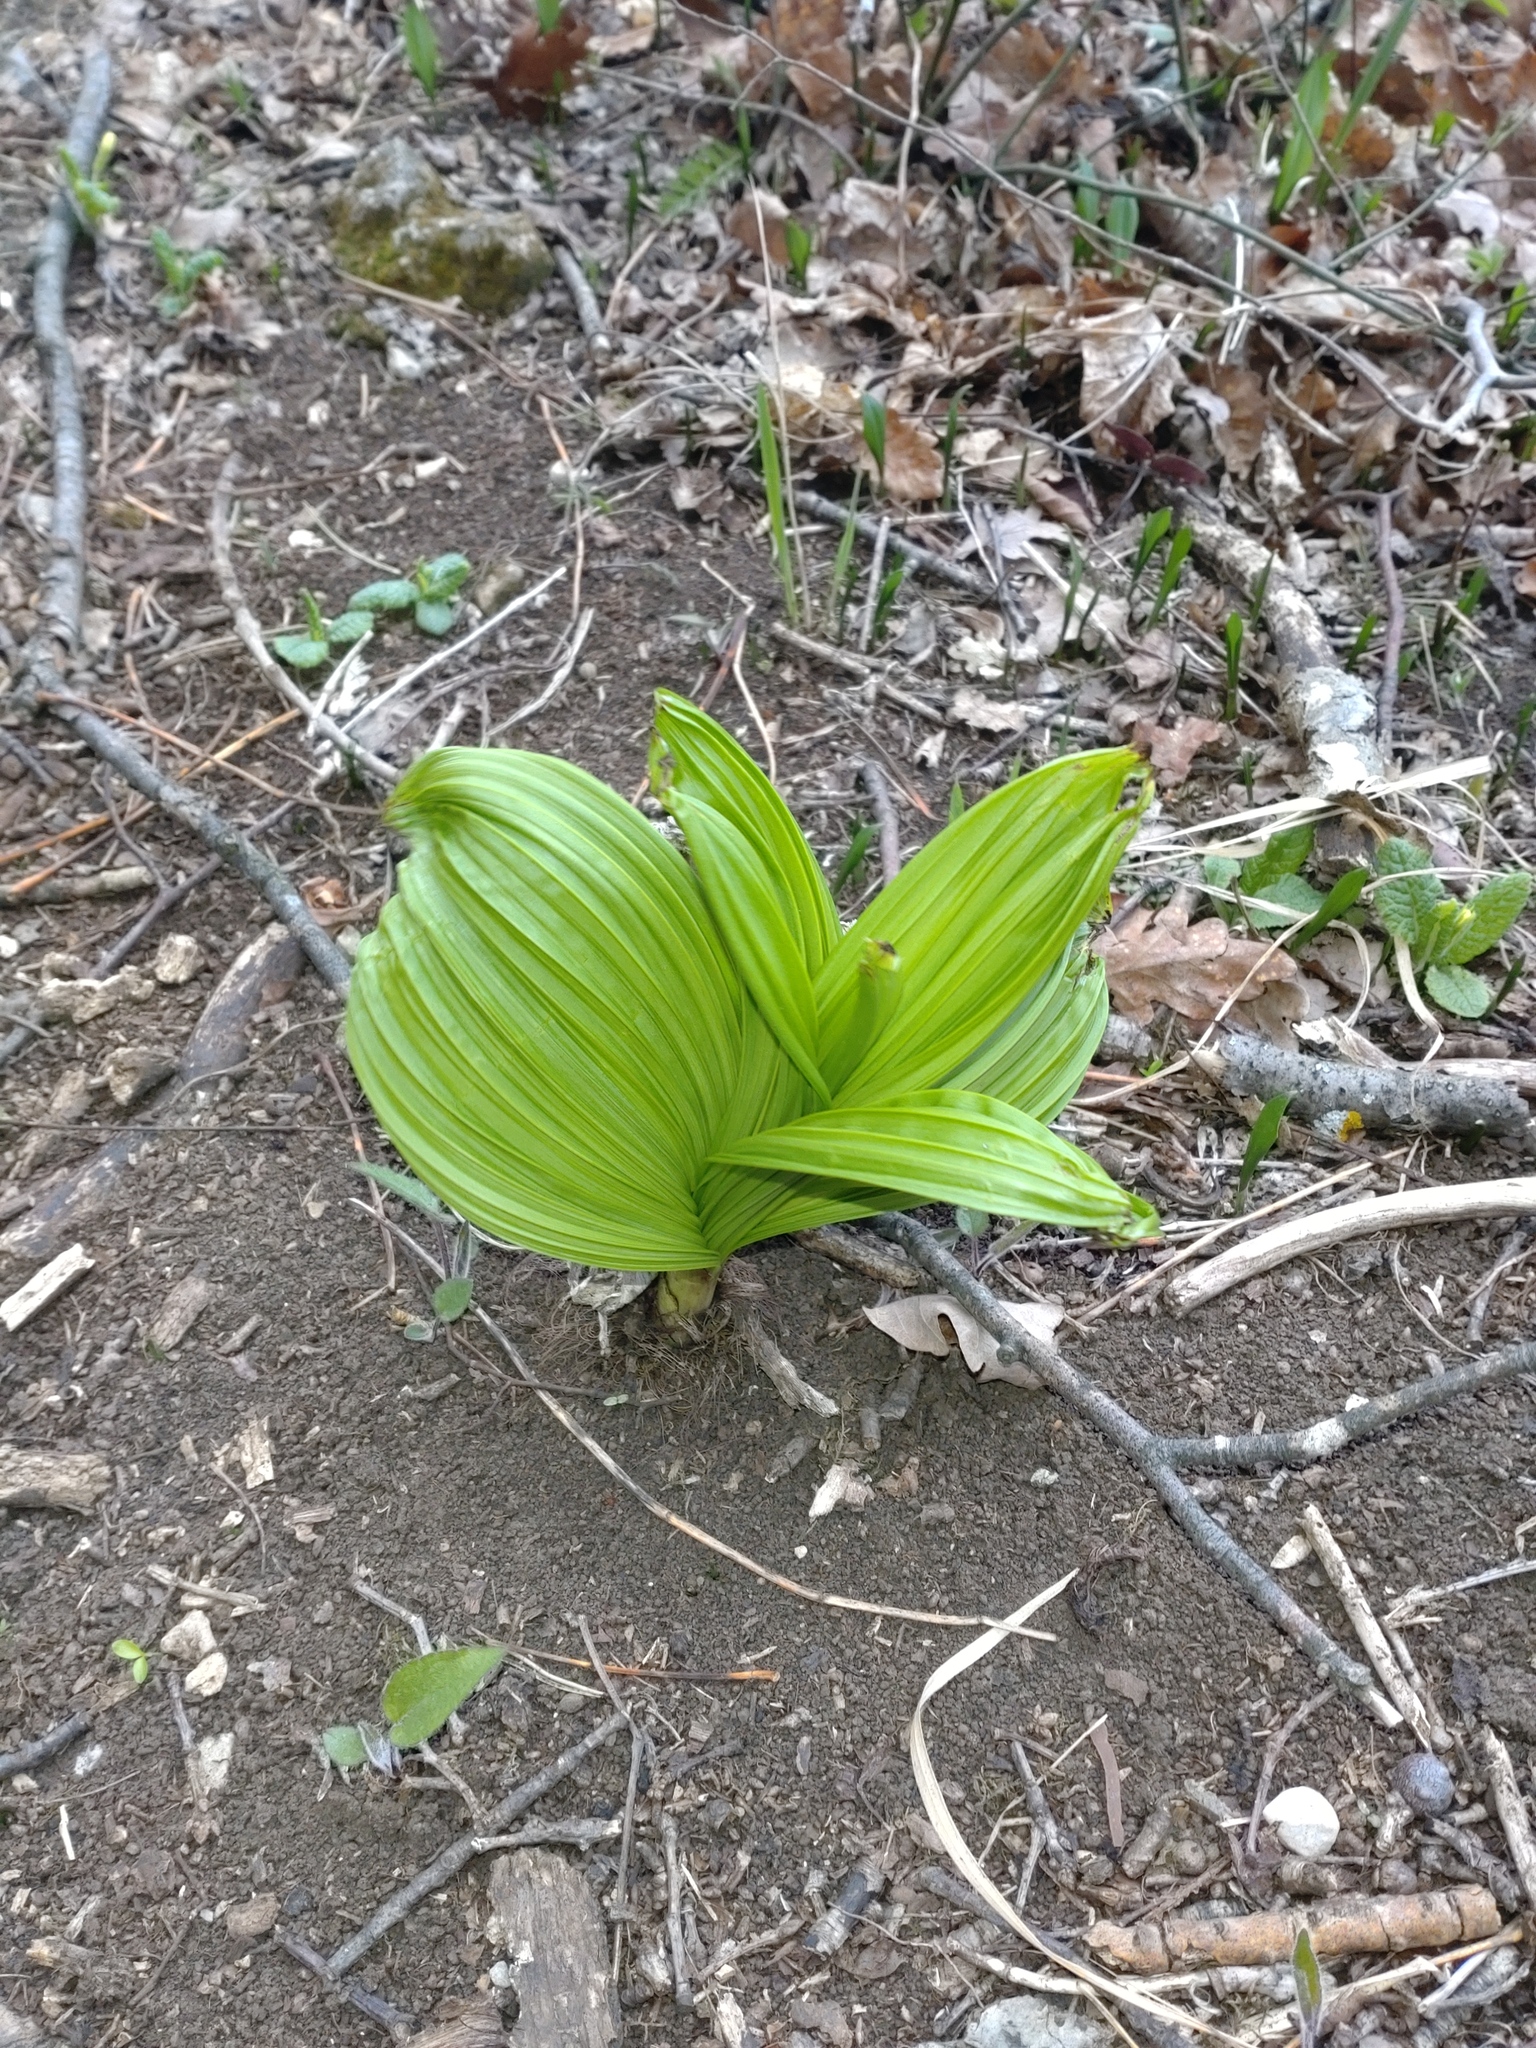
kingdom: Plantae
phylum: Tracheophyta
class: Liliopsida
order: Liliales
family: Melanthiaceae
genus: Veratrum
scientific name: Veratrum nigrum
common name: Black veratrum
